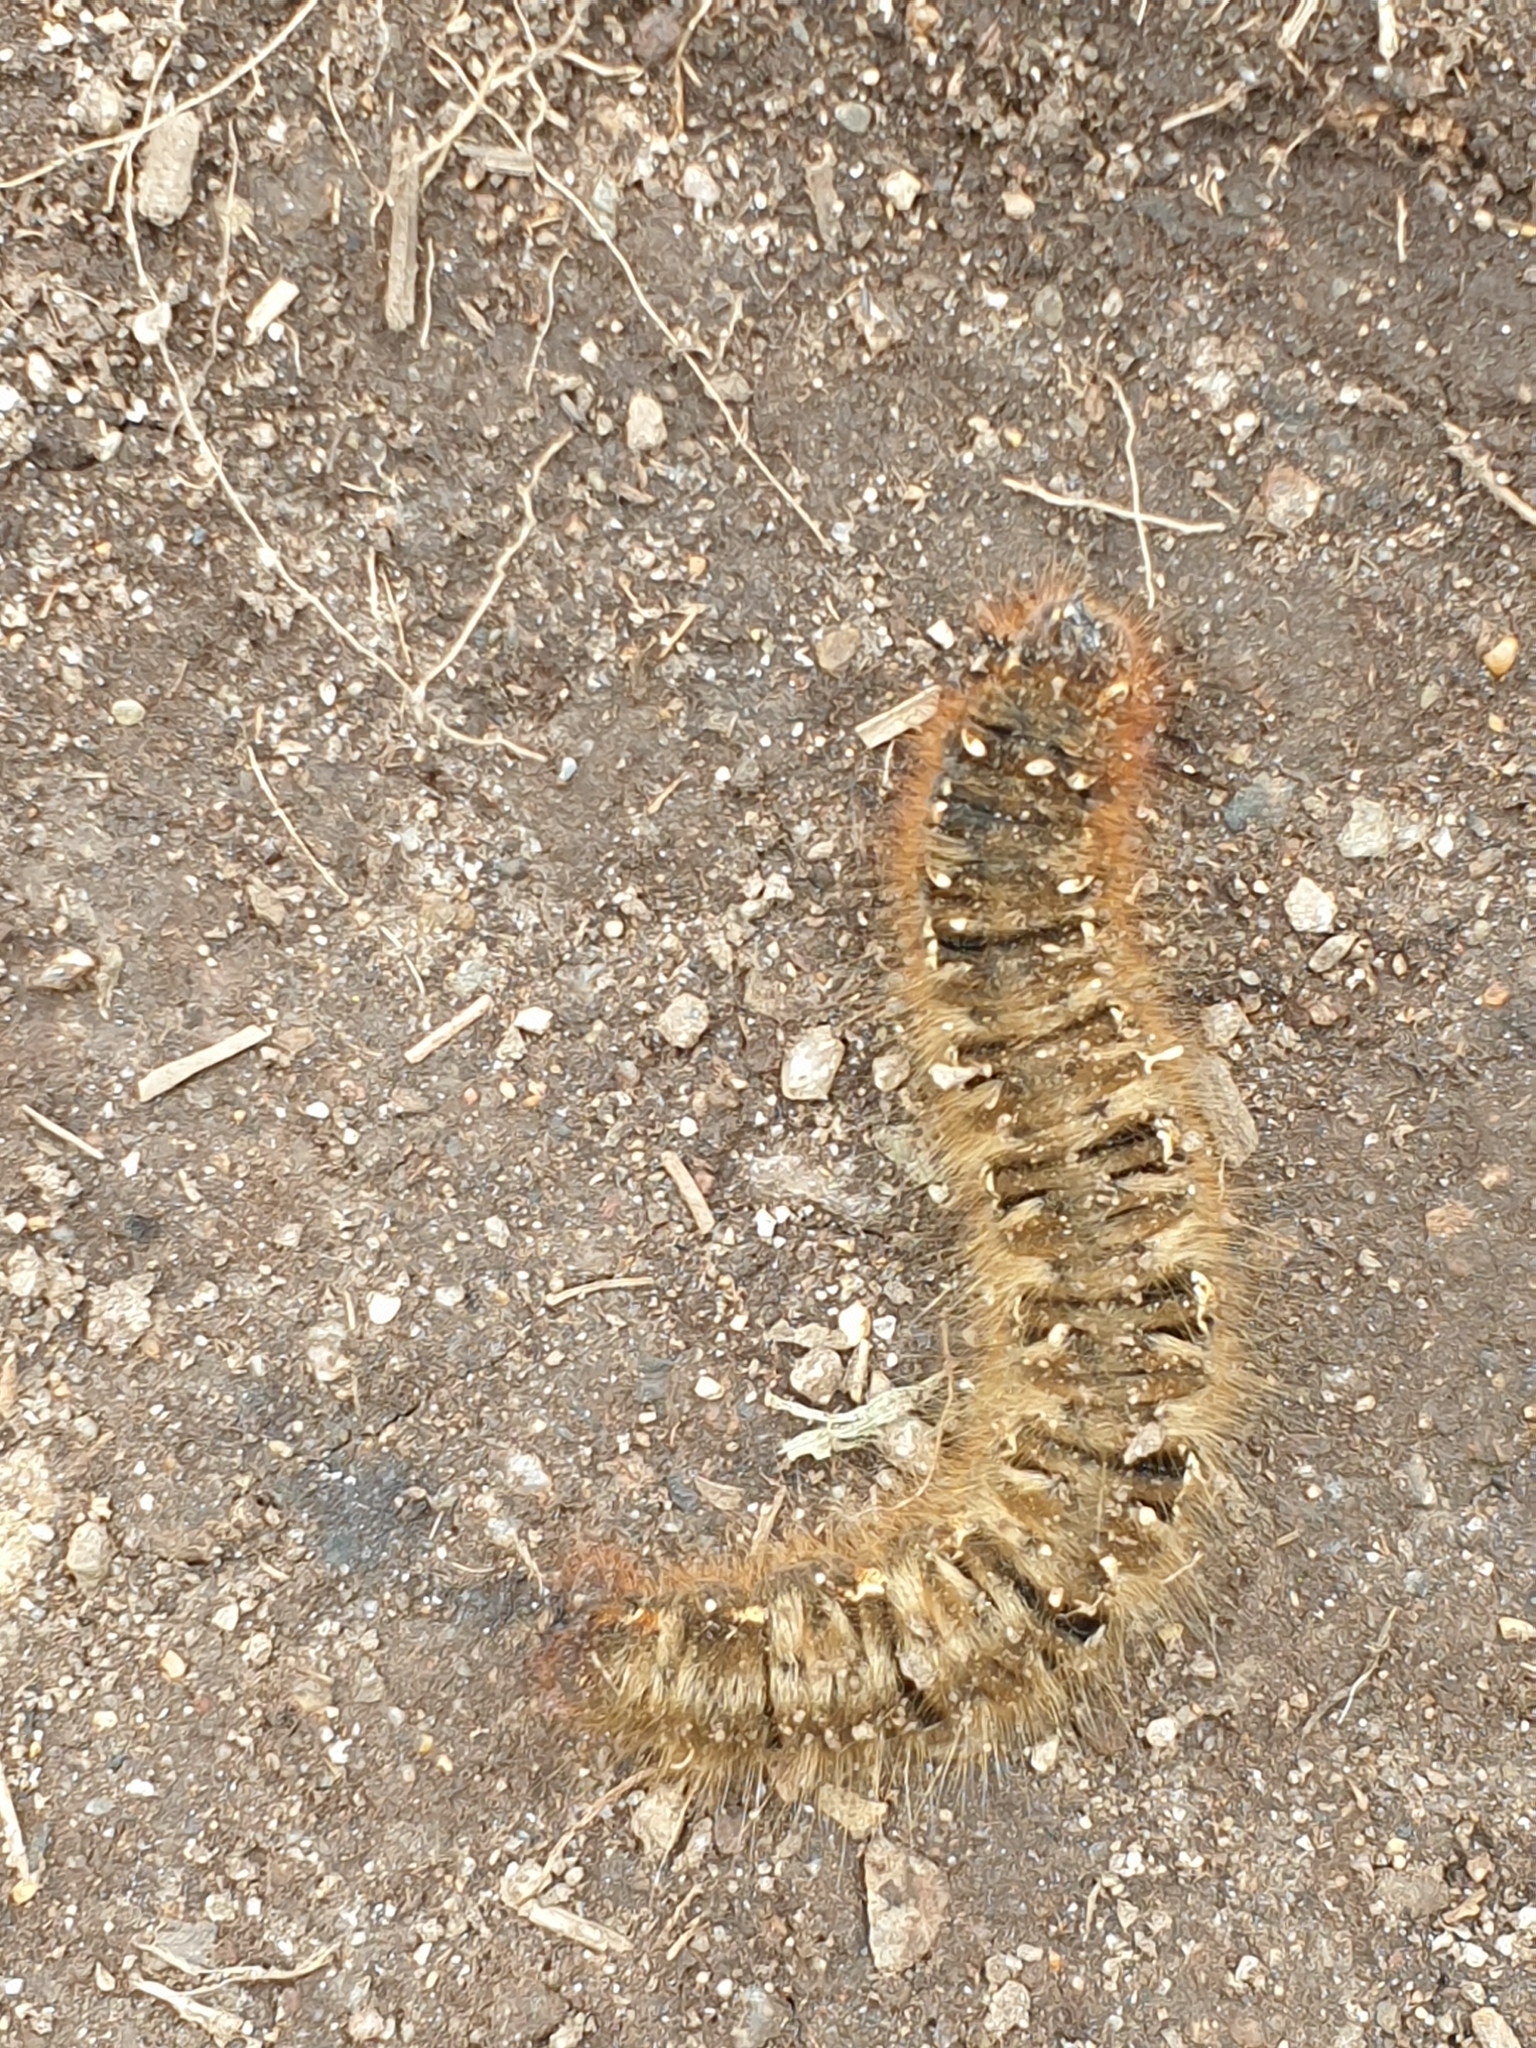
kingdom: Animalia
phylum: Arthropoda
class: Insecta
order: Lepidoptera
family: Lasiocampidae
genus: Lasiocampa
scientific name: Lasiocampa quercus
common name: Oak eggar
